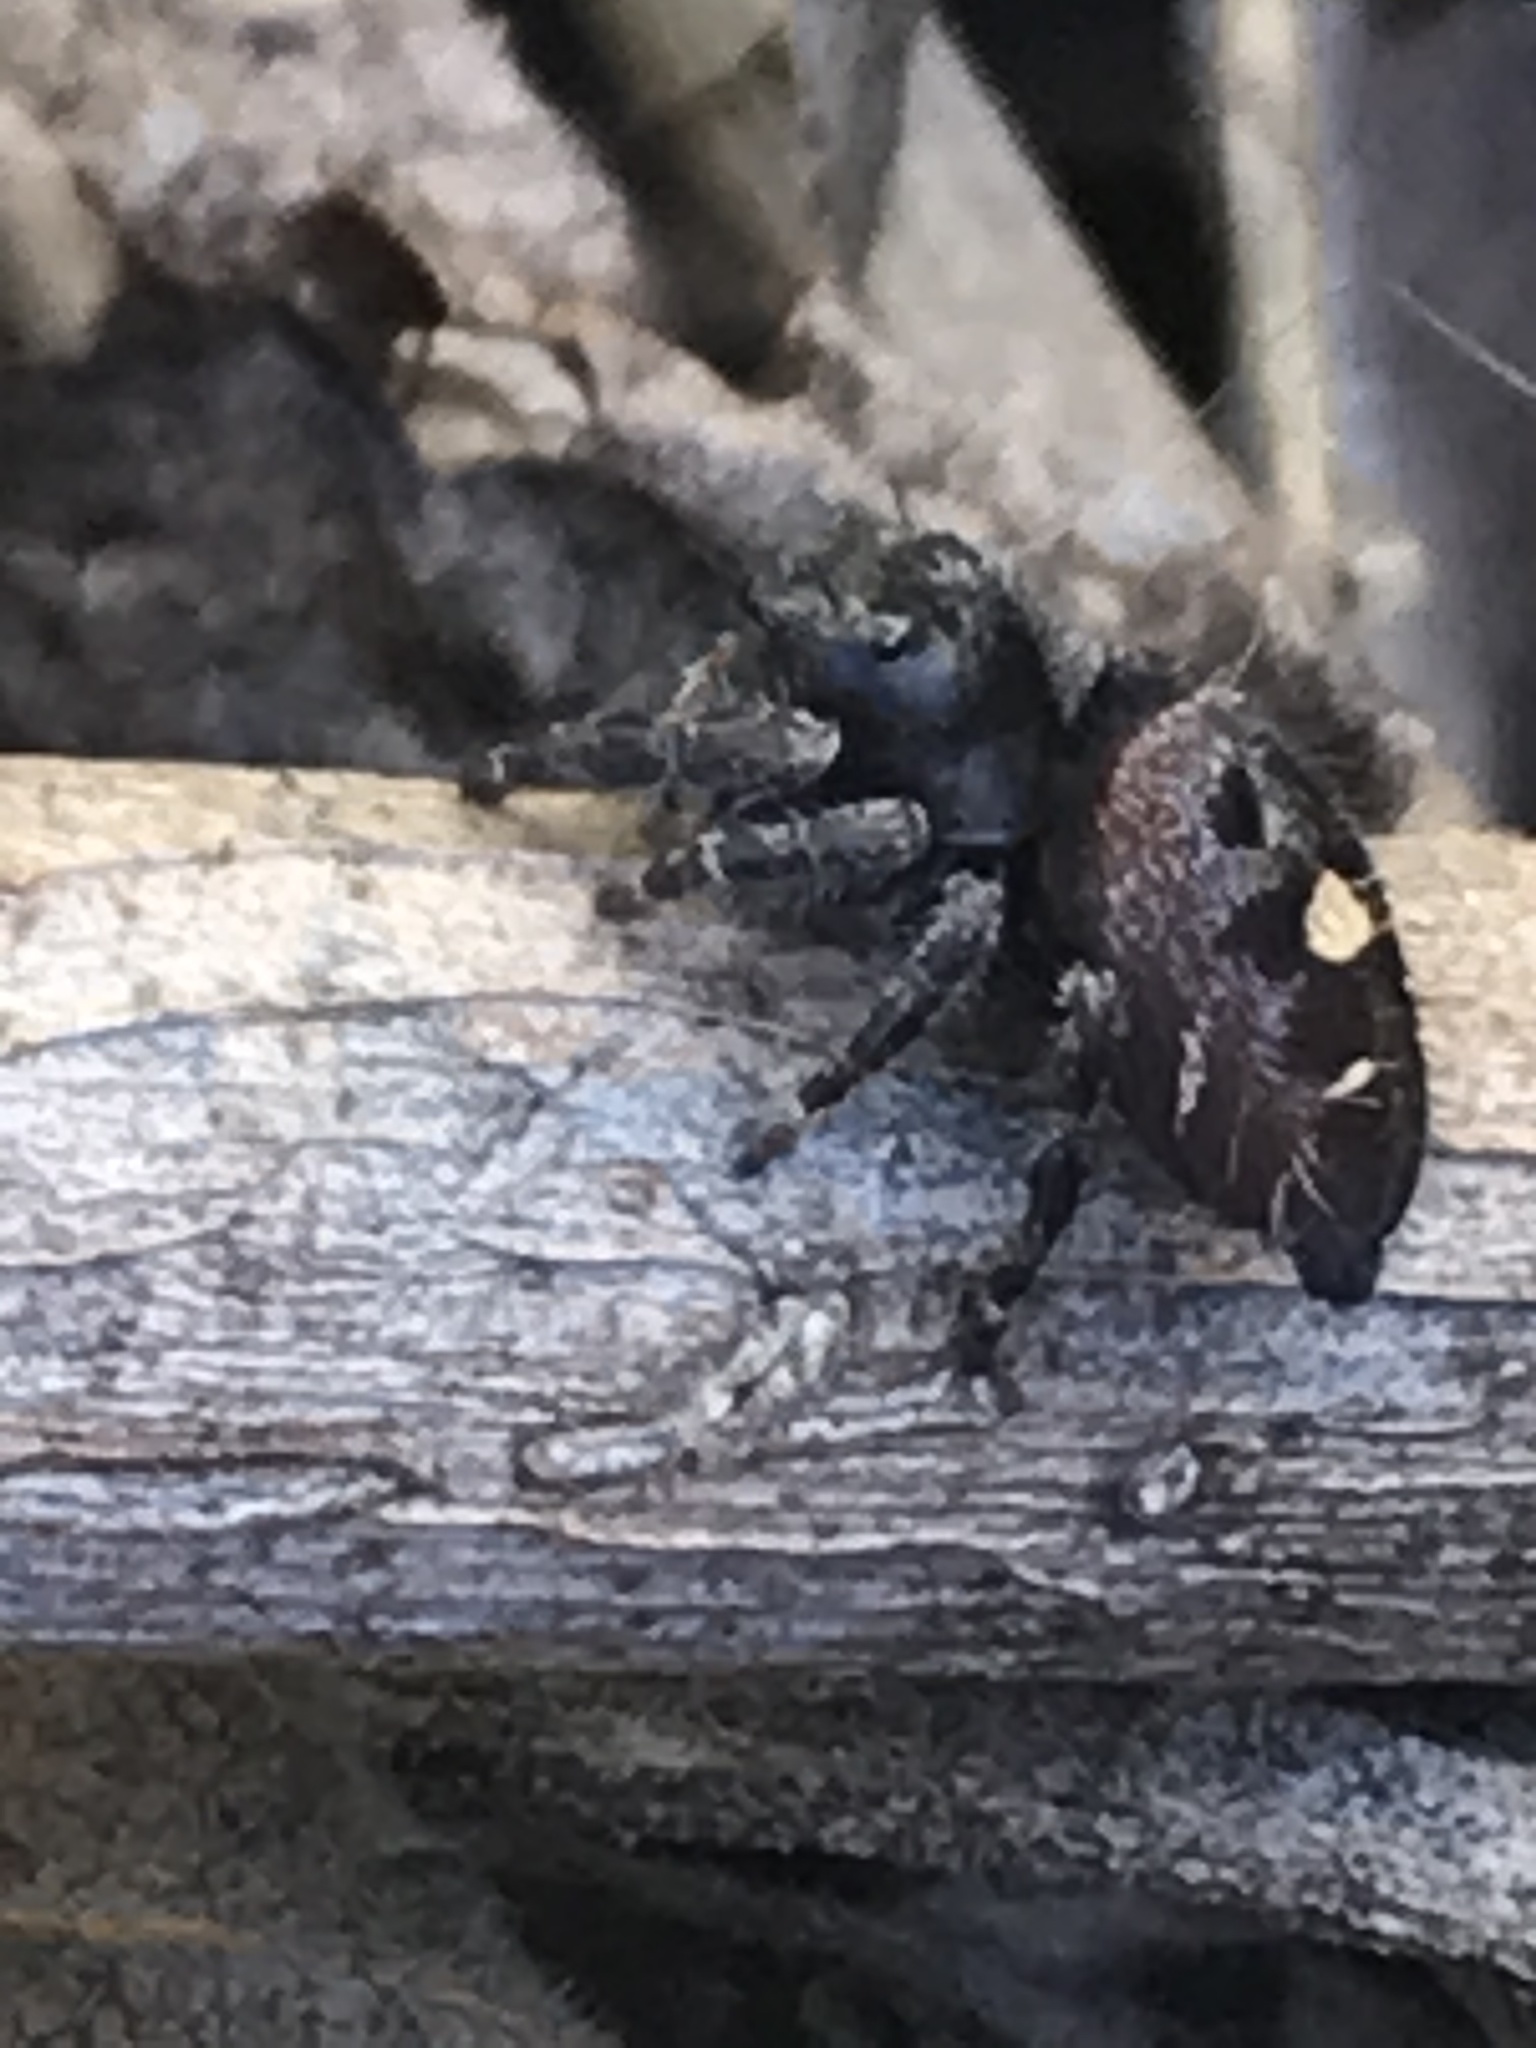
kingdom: Animalia
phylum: Arthropoda
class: Arachnida
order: Araneae
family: Salticidae
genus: Phidippus
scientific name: Phidippus audax
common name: Bold jumper
